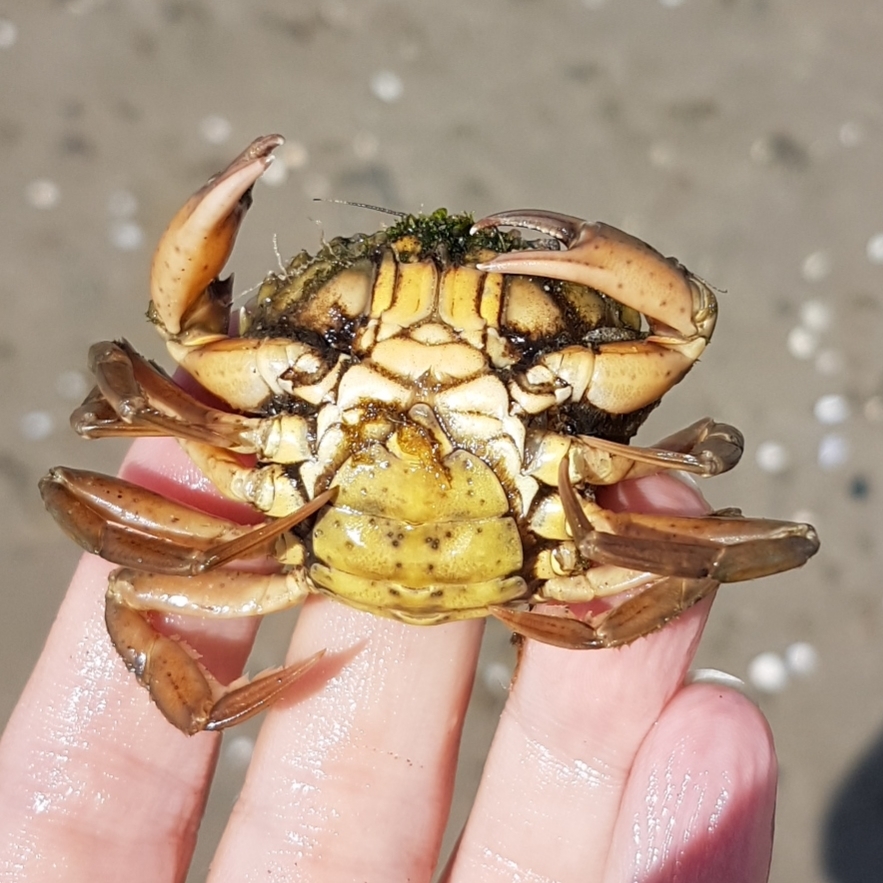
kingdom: Animalia
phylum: Arthropoda
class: Malacostraca
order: Decapoda
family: Carcinidae
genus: Carcinus
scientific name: Carcinus aestuarii
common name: Mediterranean green crab
